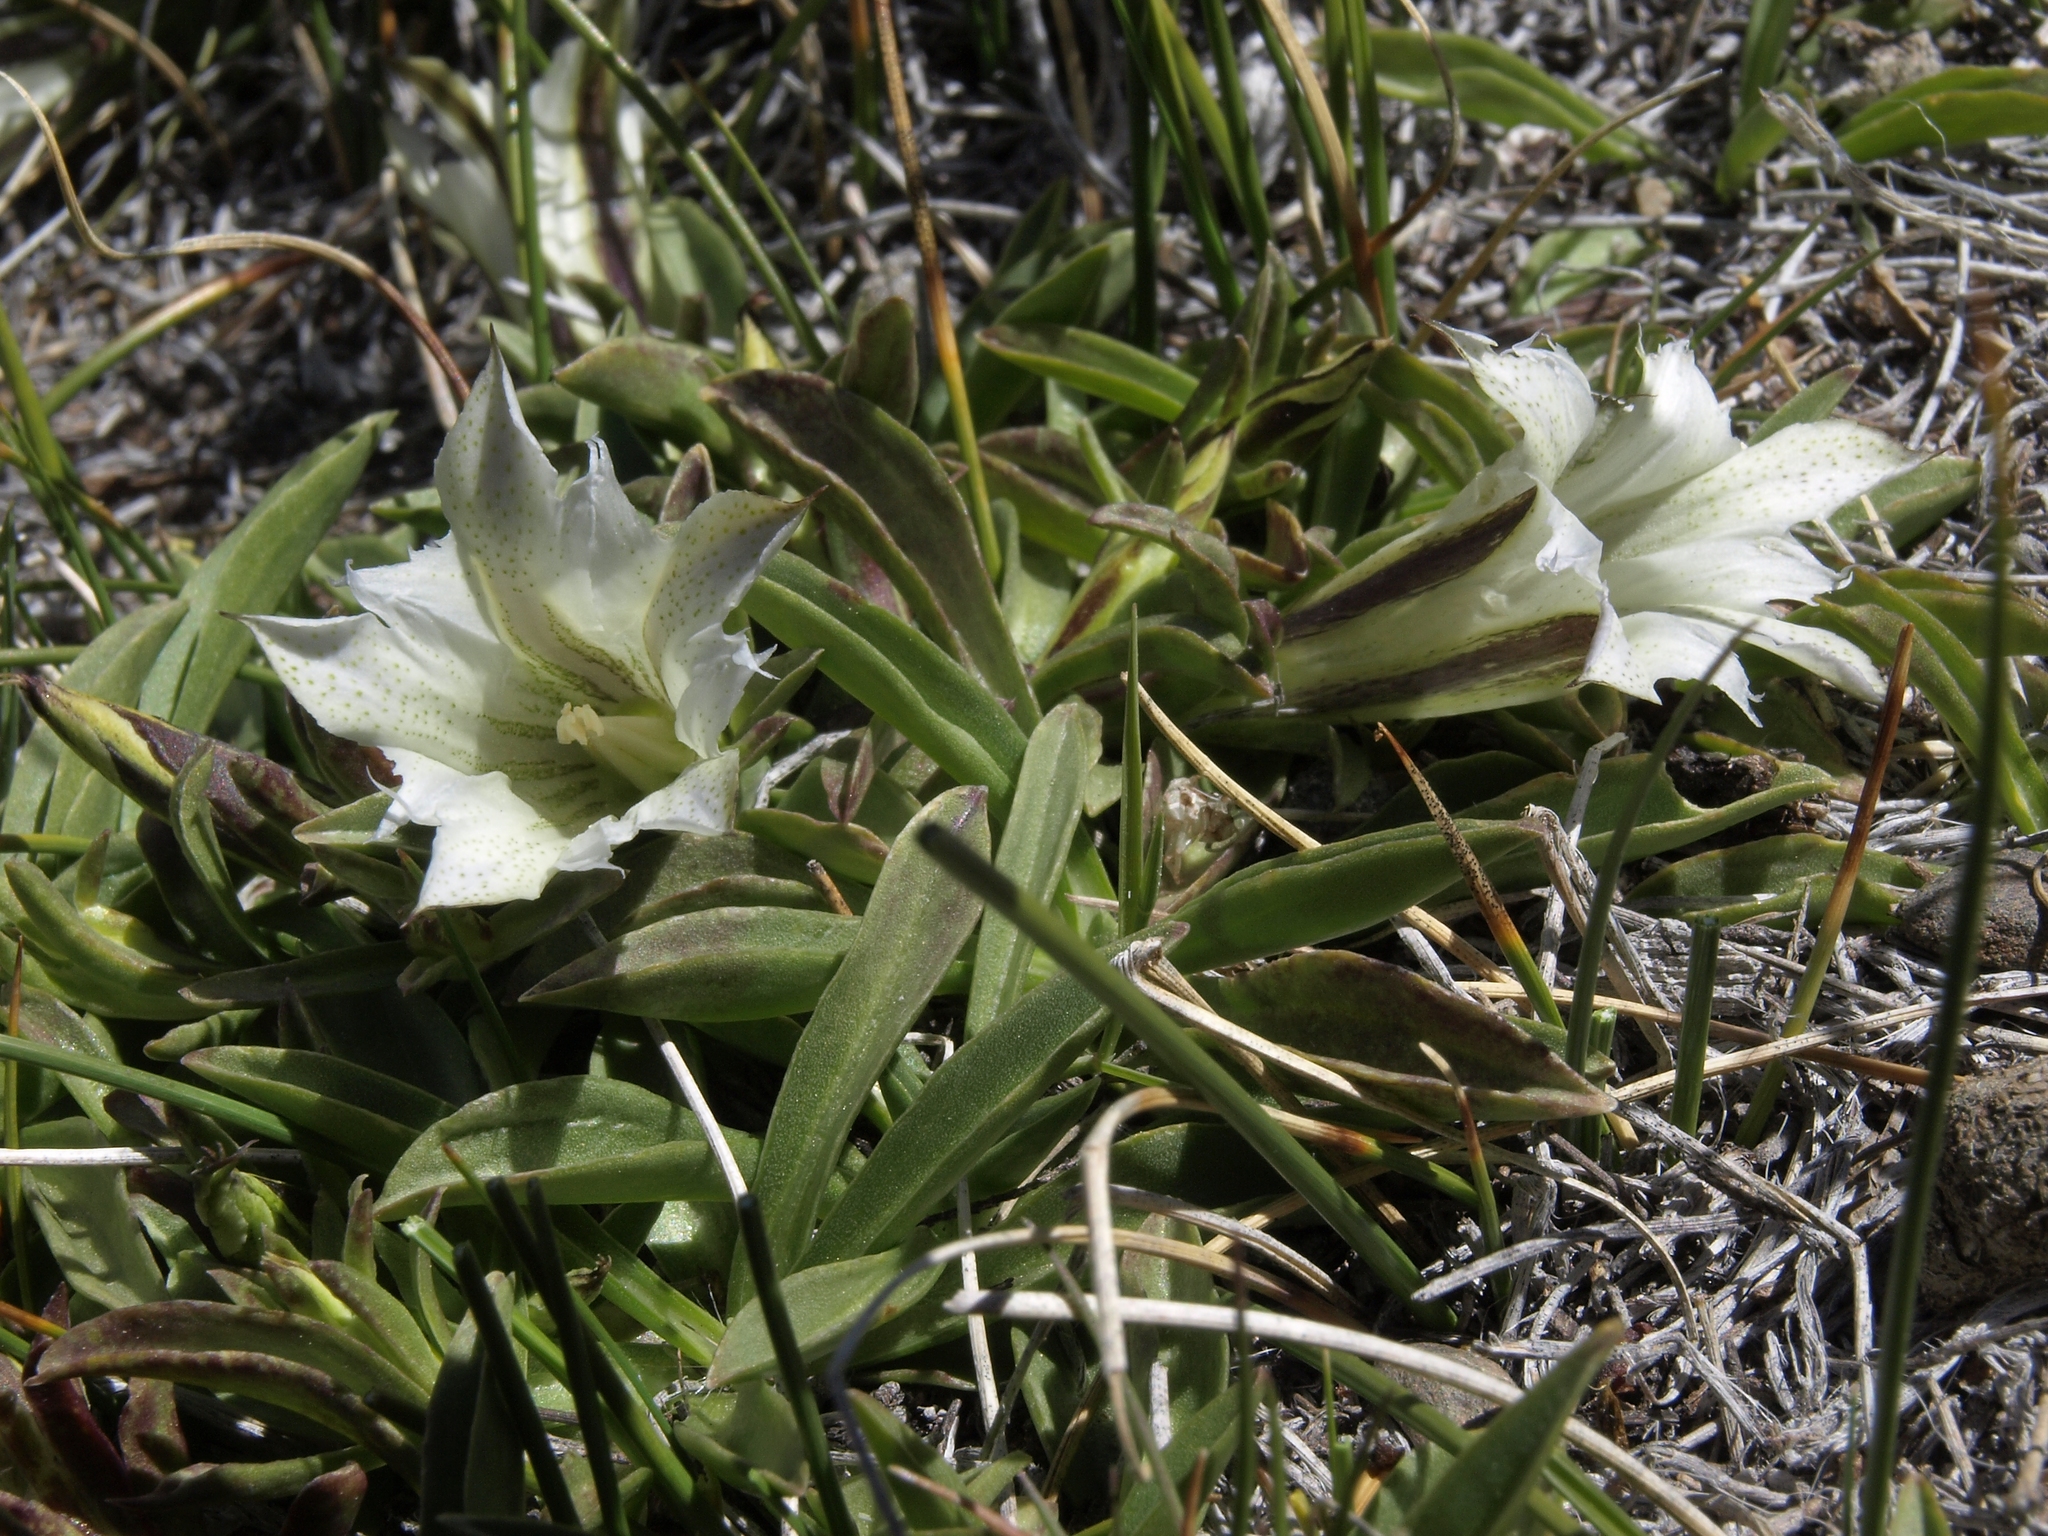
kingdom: Plantae
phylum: Tracheophyta
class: Magnoliopsida
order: Gentianales
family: Gentianaceae
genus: Gentiana
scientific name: Gentiana newberryi
